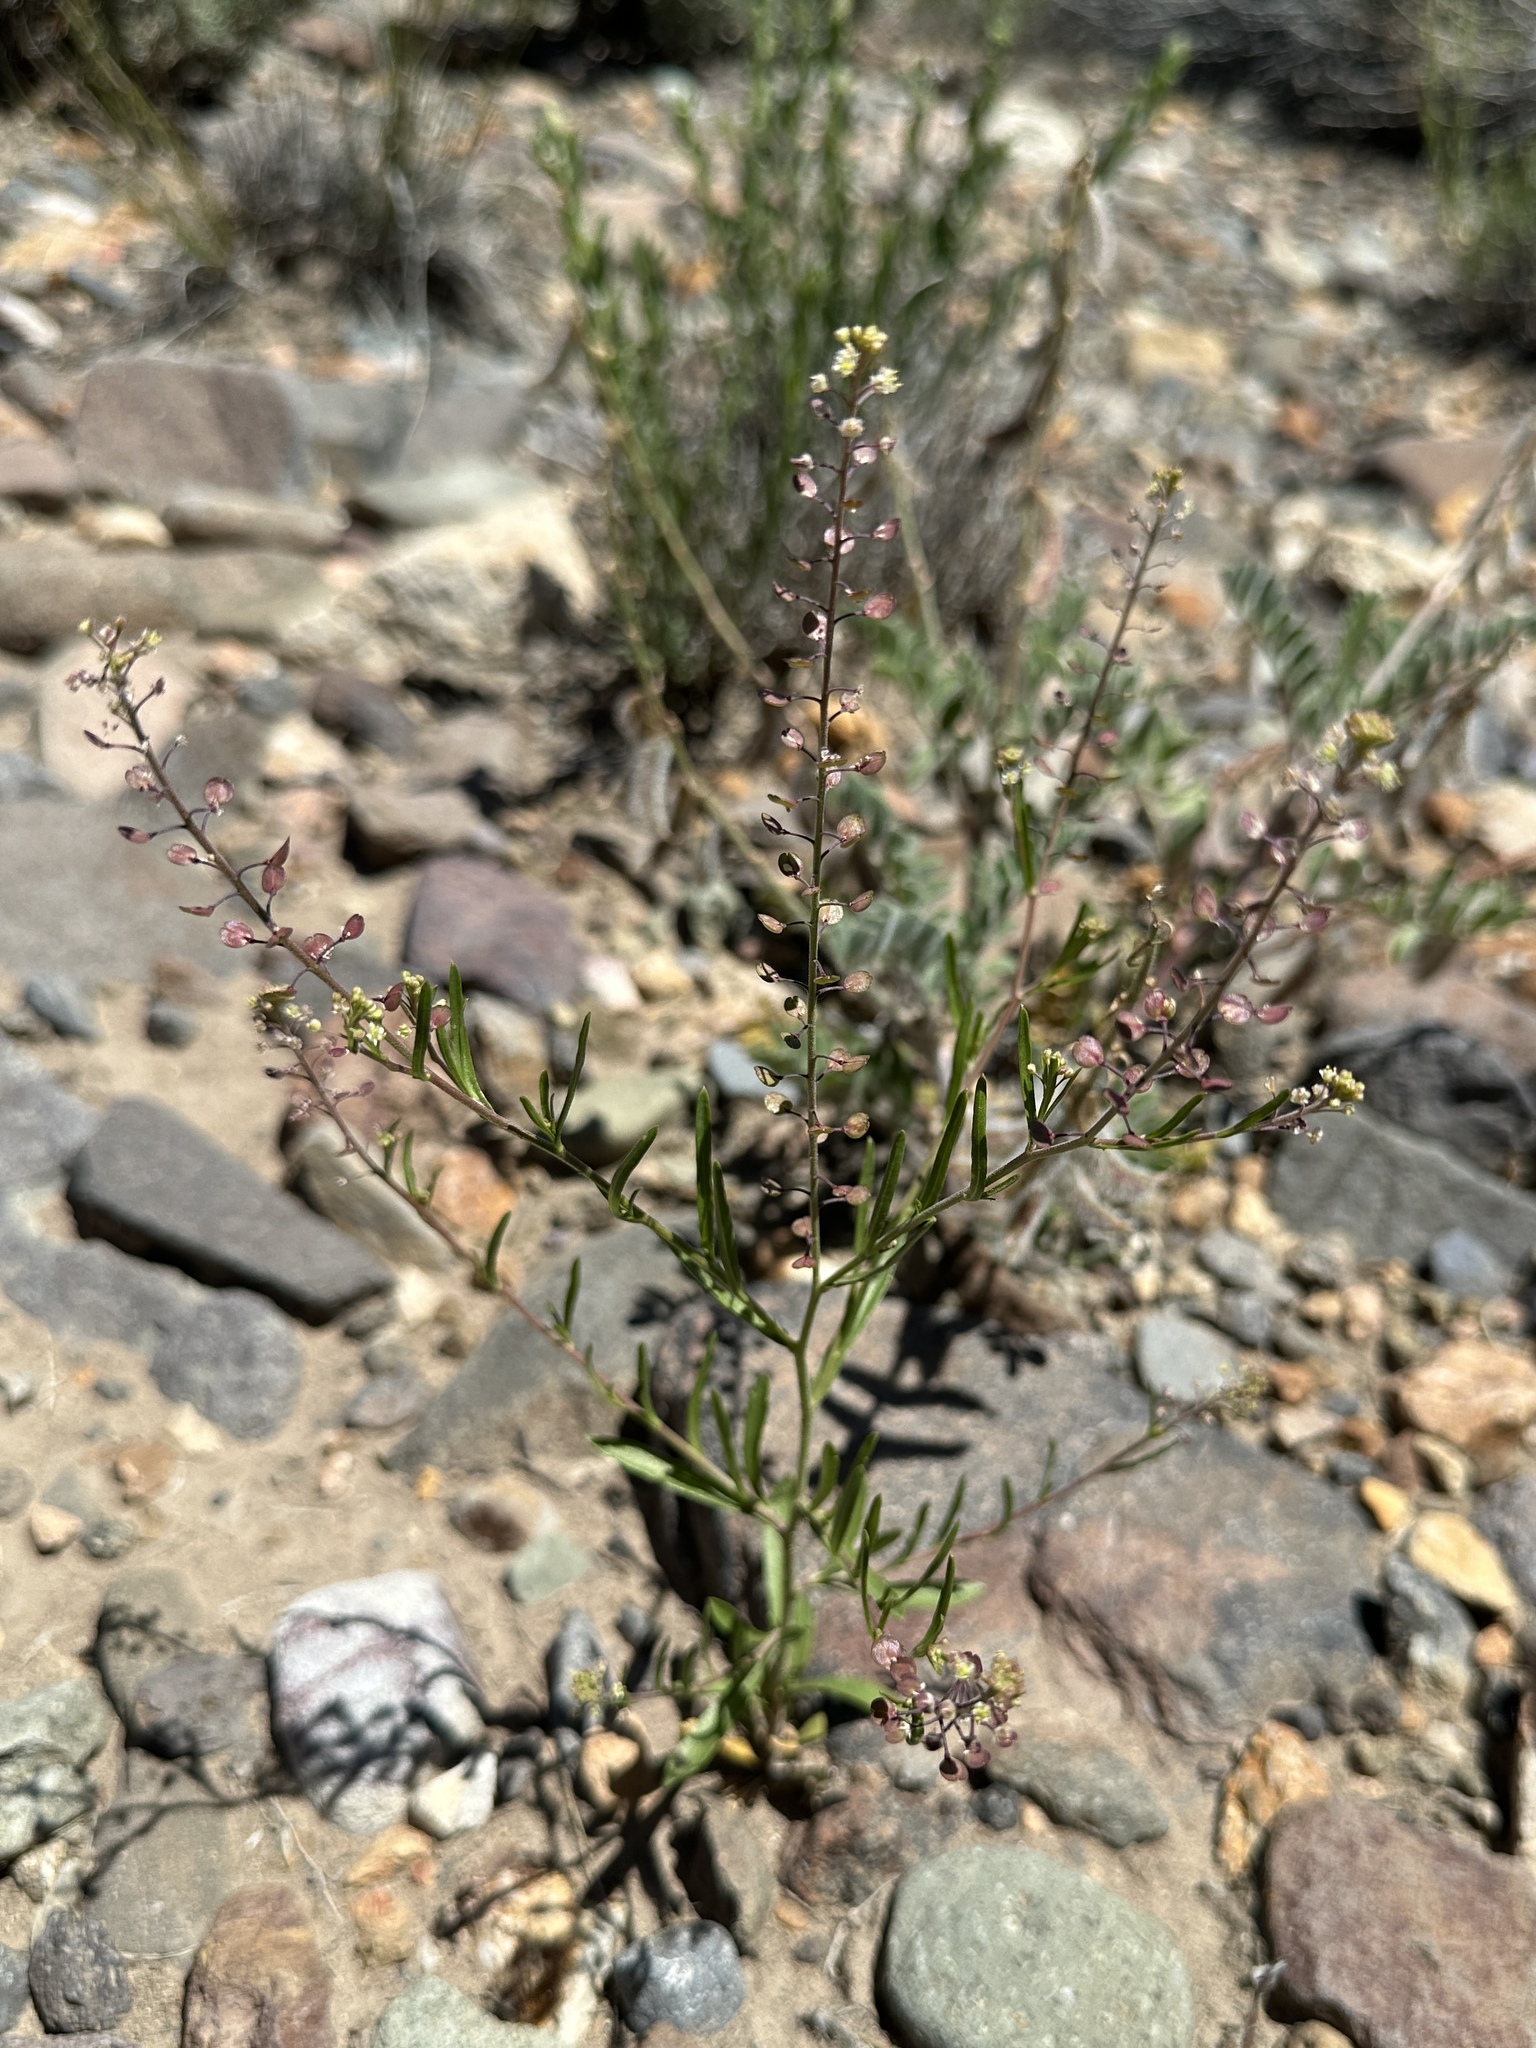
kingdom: Plantae
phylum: Tracheophyta
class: Magnoliopsida
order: Brassicales
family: Brassicaceae
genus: Lepidium
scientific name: Lepidium virginicum
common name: Least pepperwort
